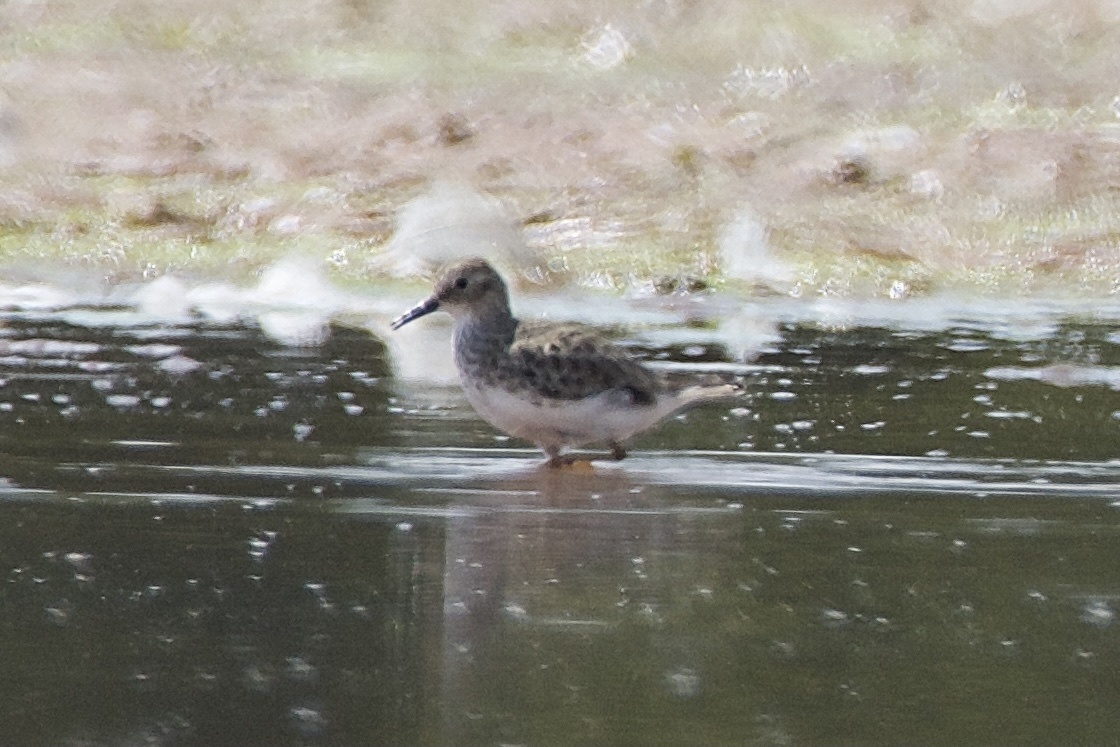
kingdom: Animalia
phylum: Chordata
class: Aves
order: Charadriiformes
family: Scolopacidae
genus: Calidris
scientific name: Calidris melanotos
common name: Pectoral sandpiper
